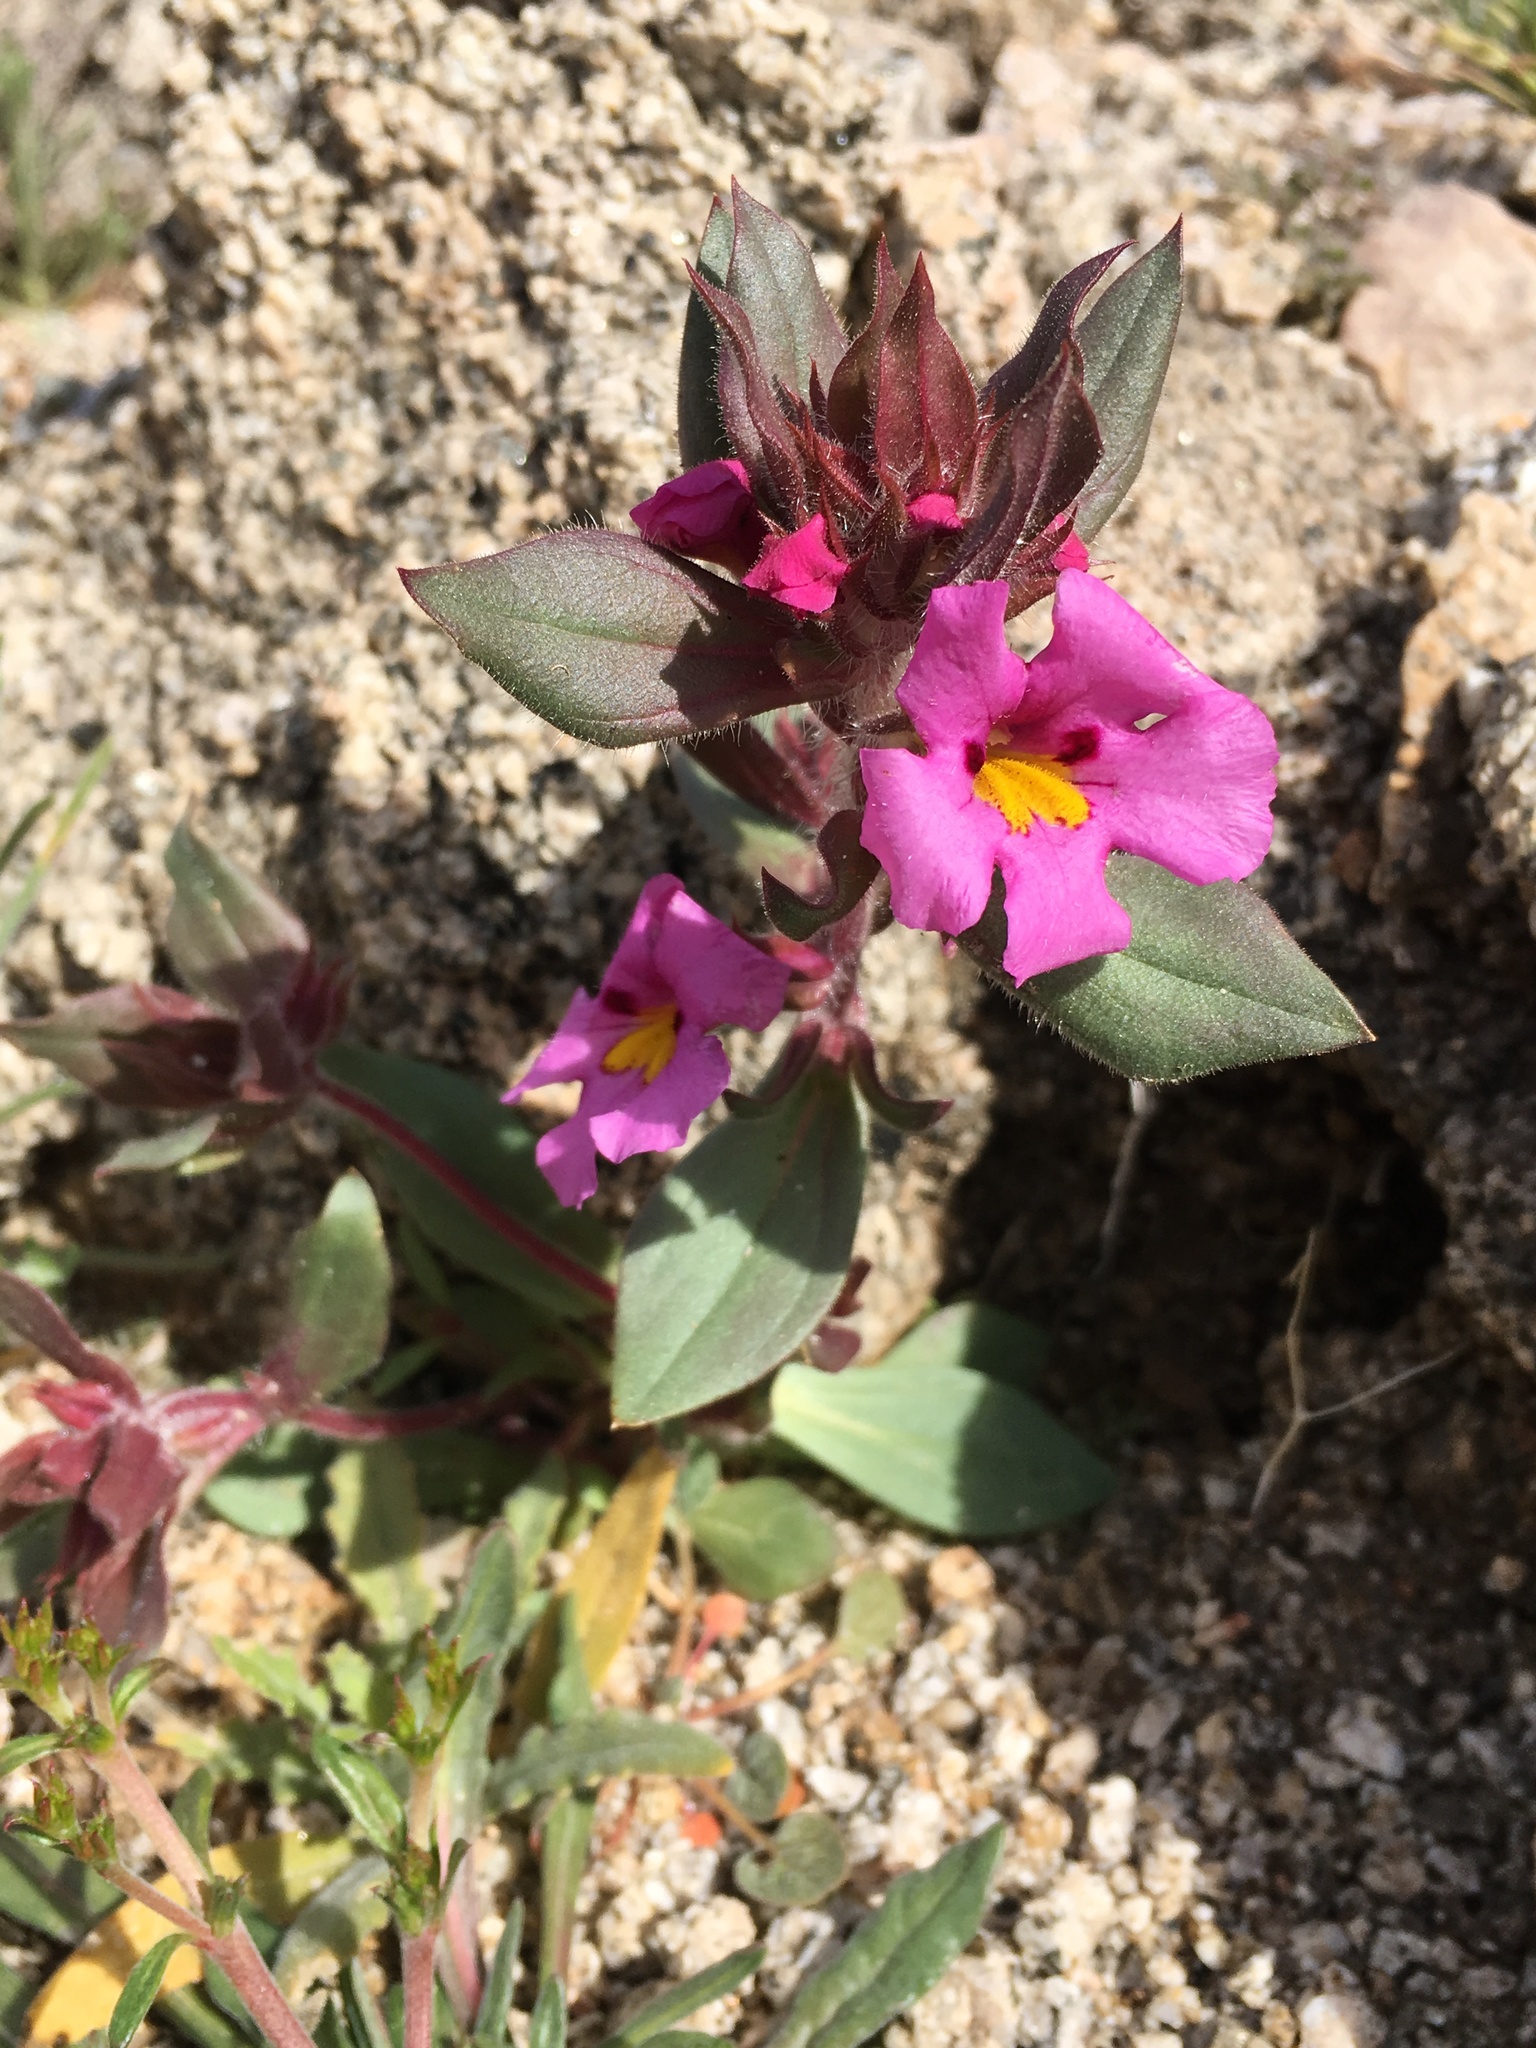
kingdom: Plantae
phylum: Tracheophyta
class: Magnoliopsida
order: Lamiales
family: Phrymaceae
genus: Diplacus
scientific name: Diplacus bigelovii
